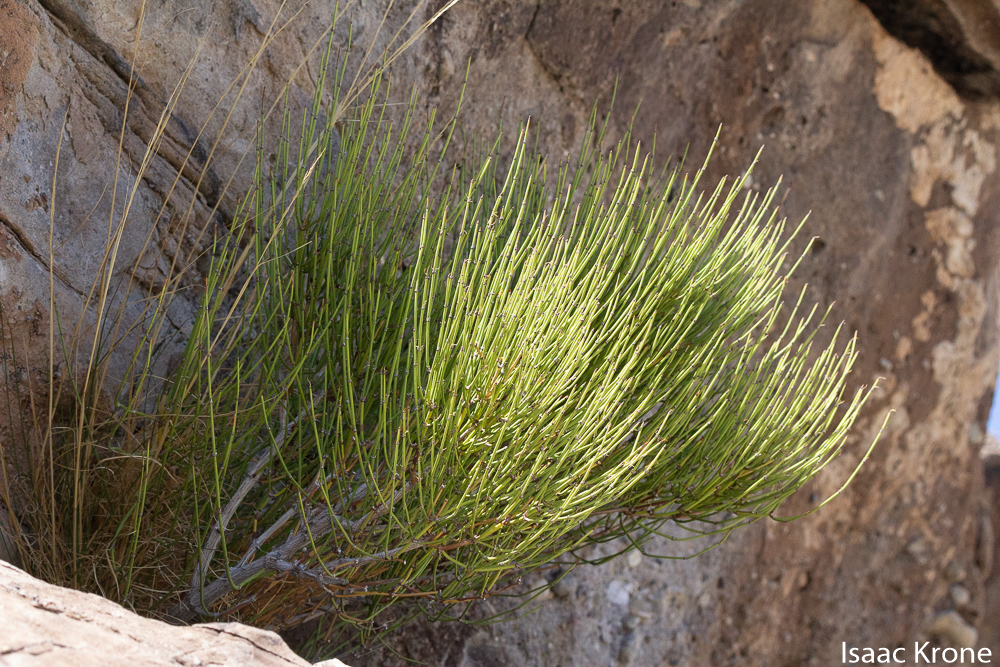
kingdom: Plantae
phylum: Tracheophyta
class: Gnetopsida
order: Ephedrales
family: Ephedraceae
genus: Ephedra
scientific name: Ephedra viridis
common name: Green ephedra
